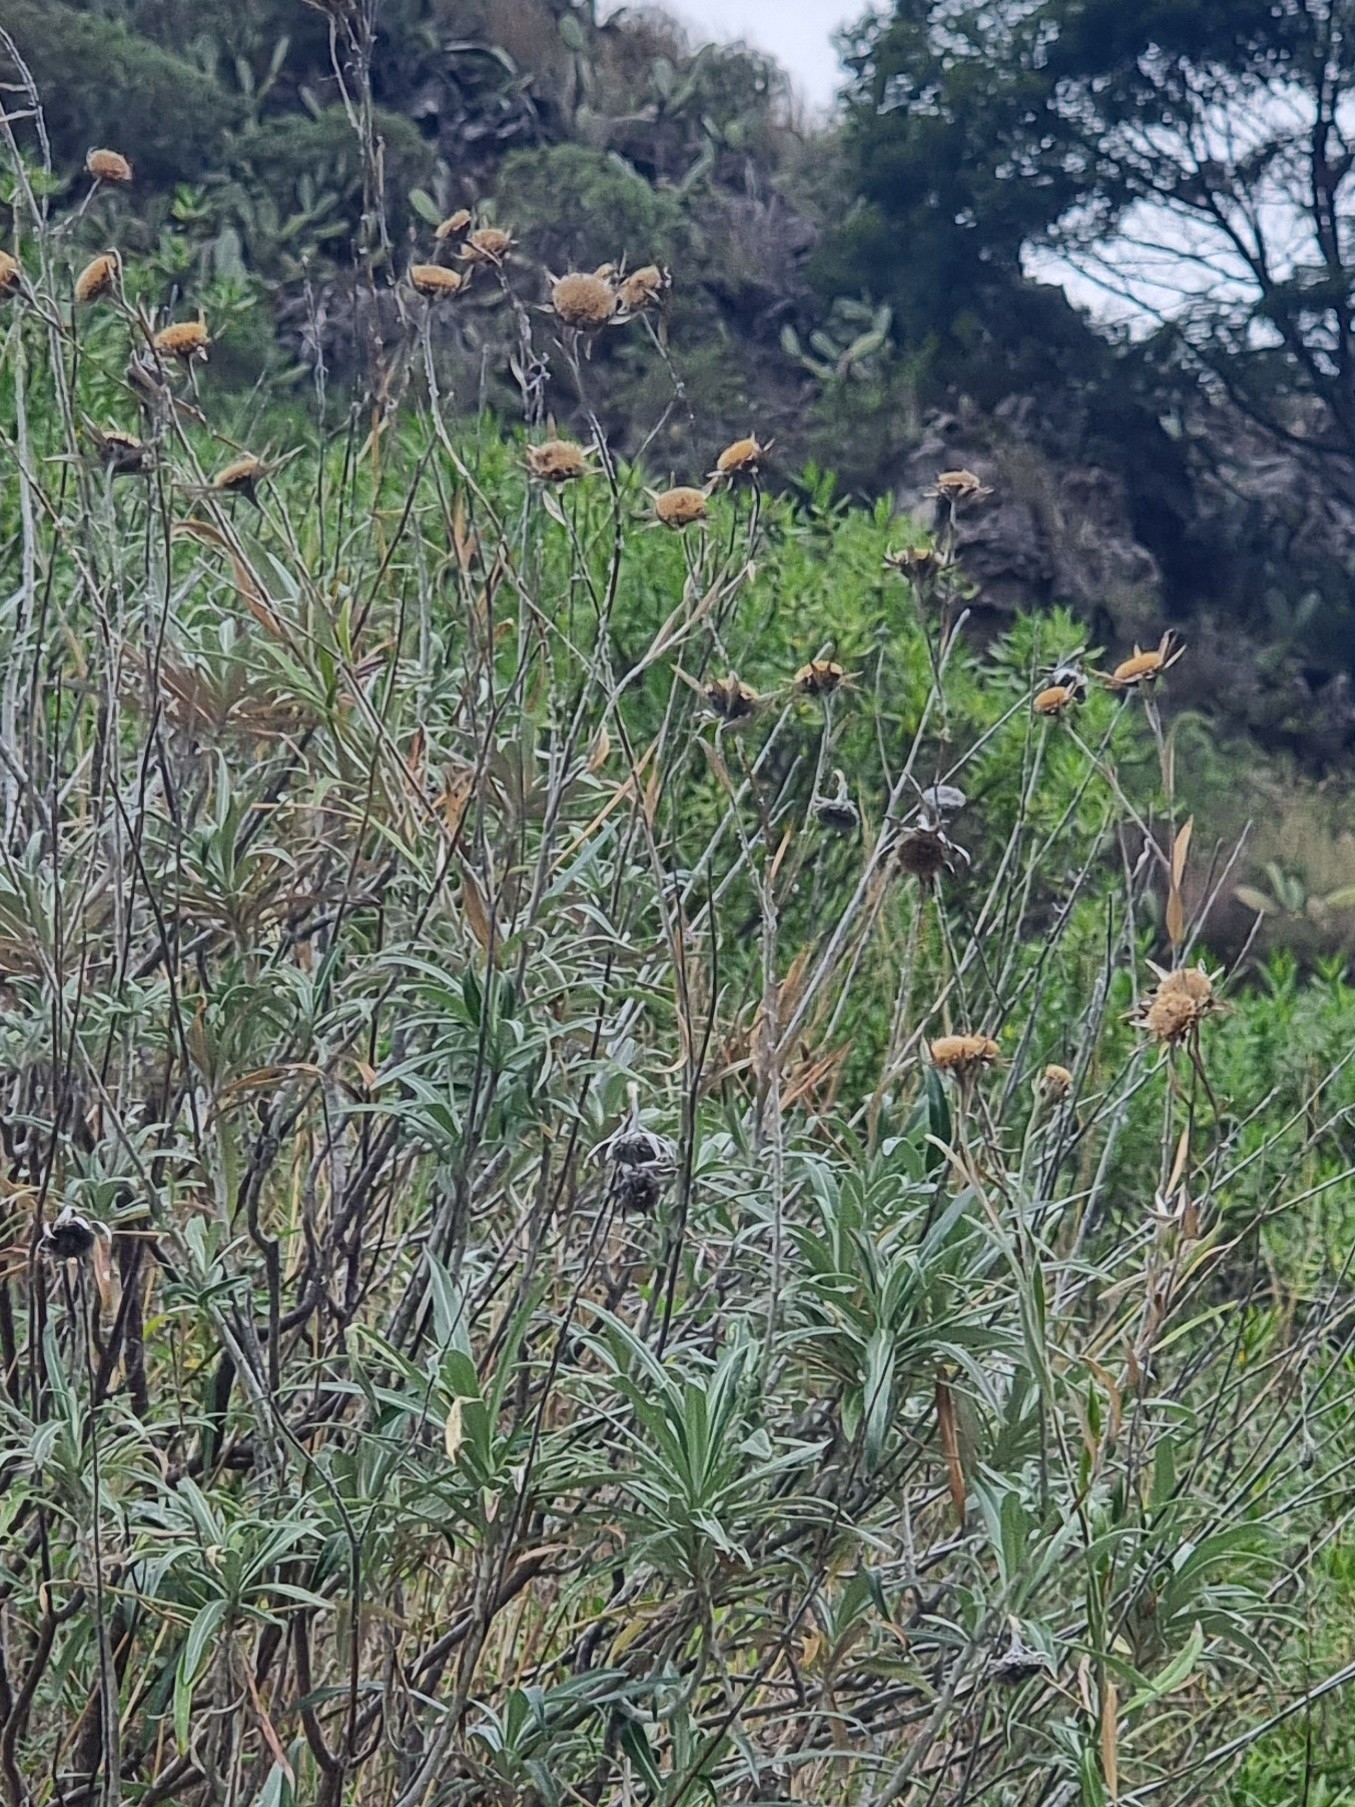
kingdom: Plantae
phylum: Tracheophyta
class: Magnoliopsida
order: Asterales
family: Asteraceae
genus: Carlina
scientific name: Carlina salicifolia
